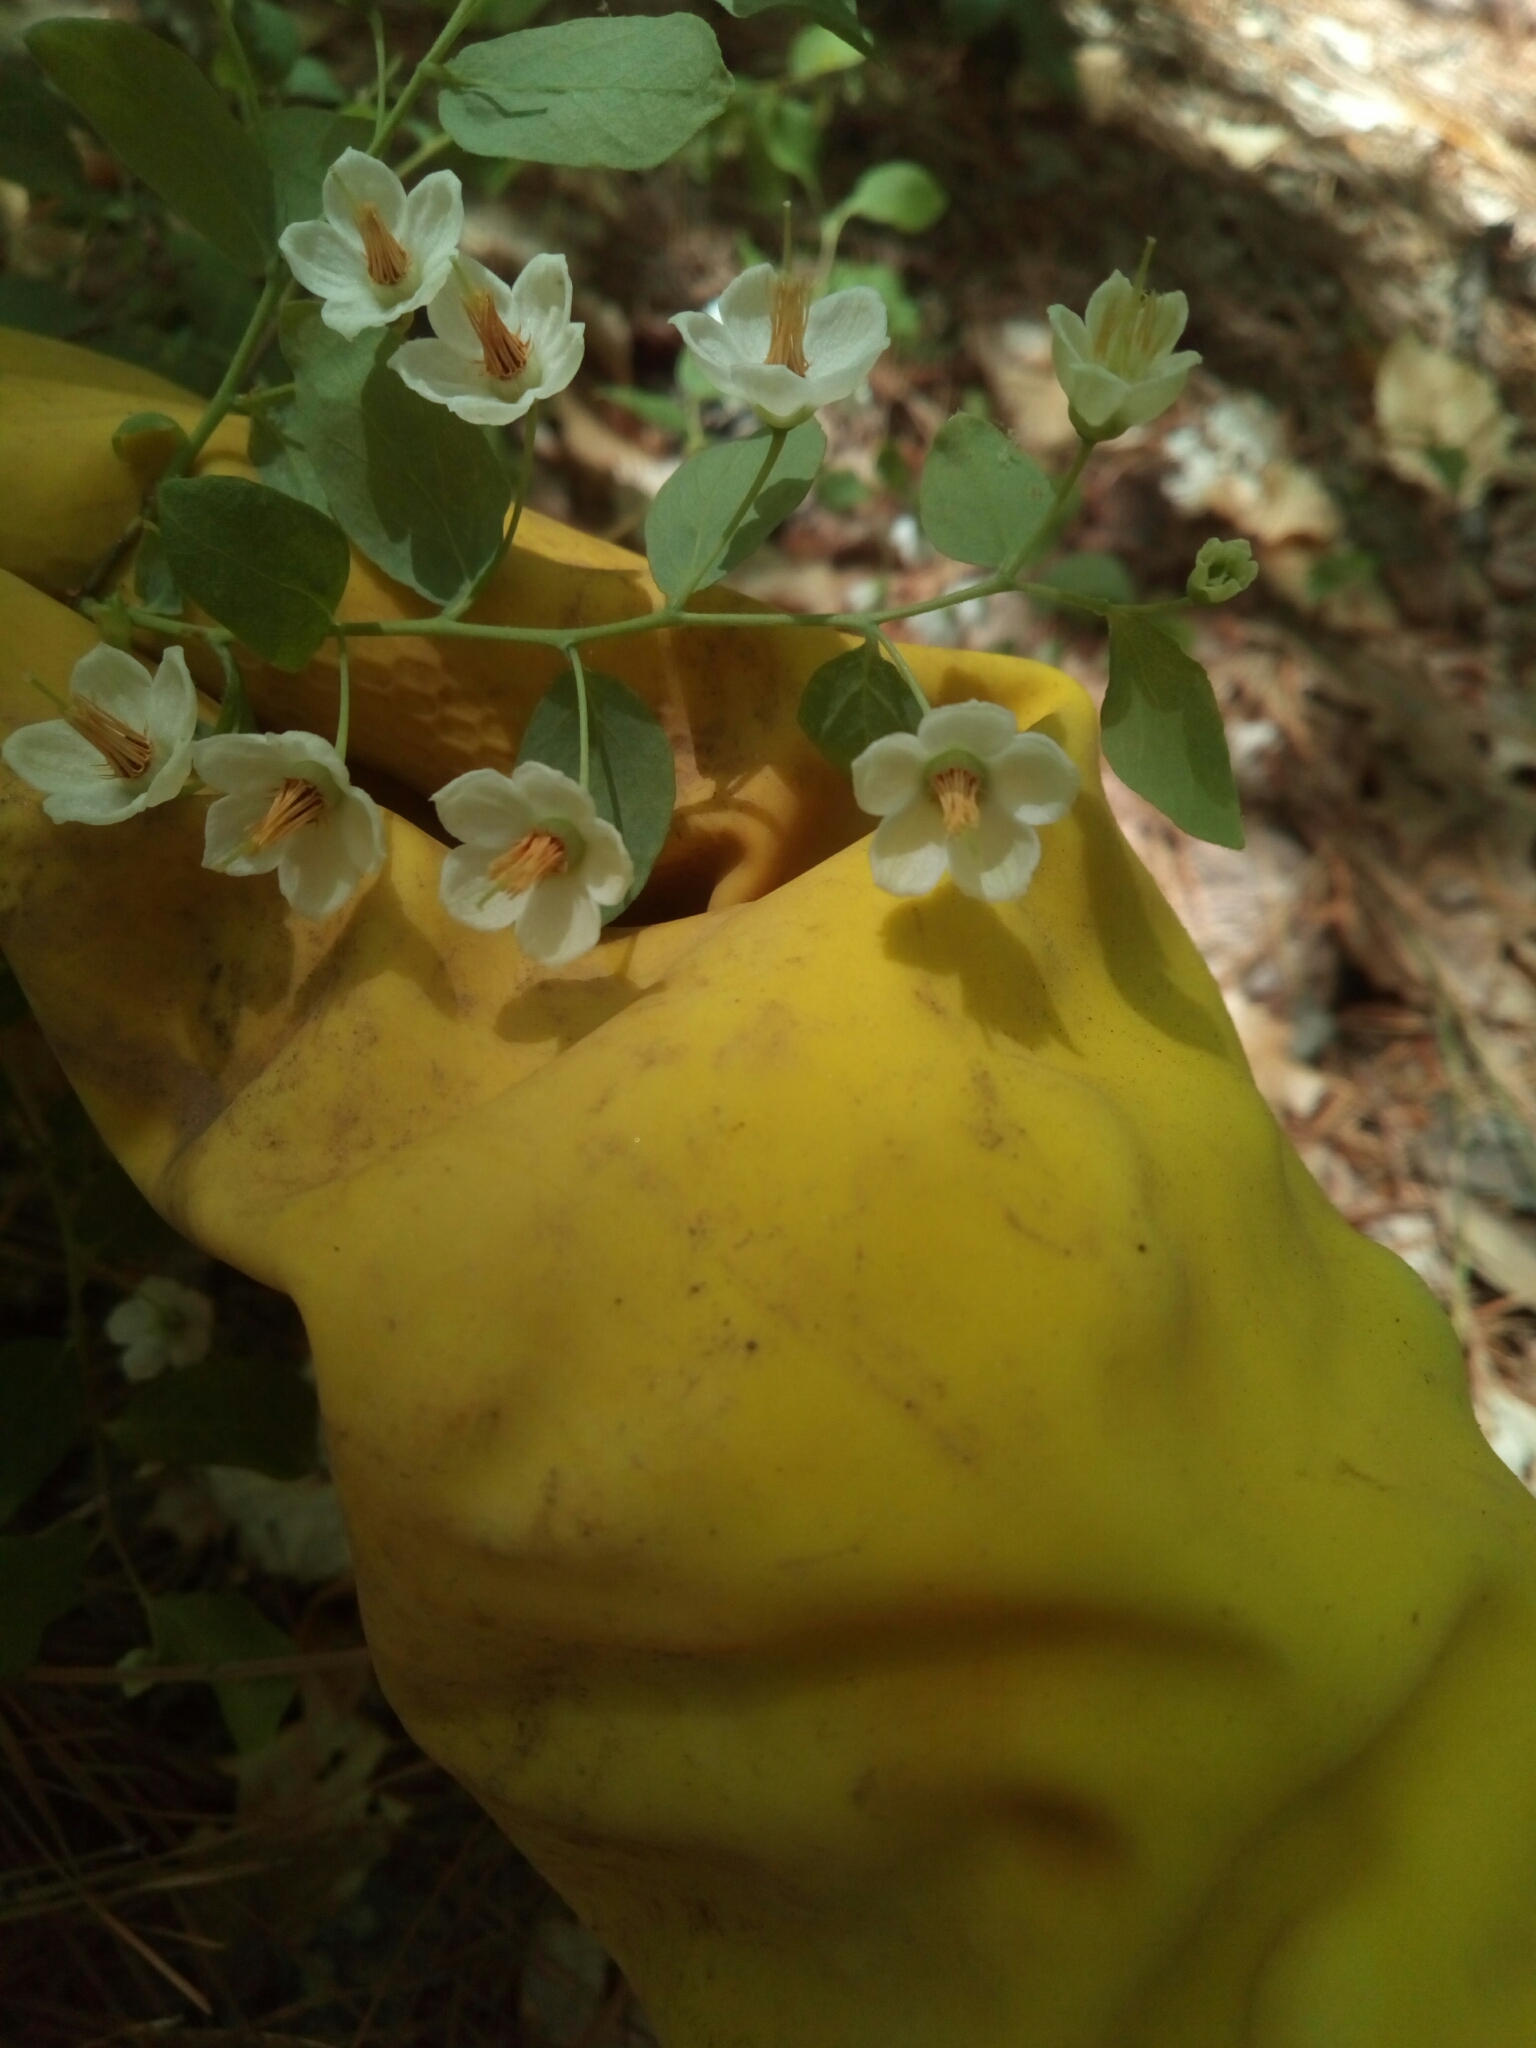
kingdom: Plantae
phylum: Tracheophyta
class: Magnoliopsida
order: Ericales
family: Ericaceae
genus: Vaccinium
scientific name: Vaccinium stamineum
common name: Deerberry
